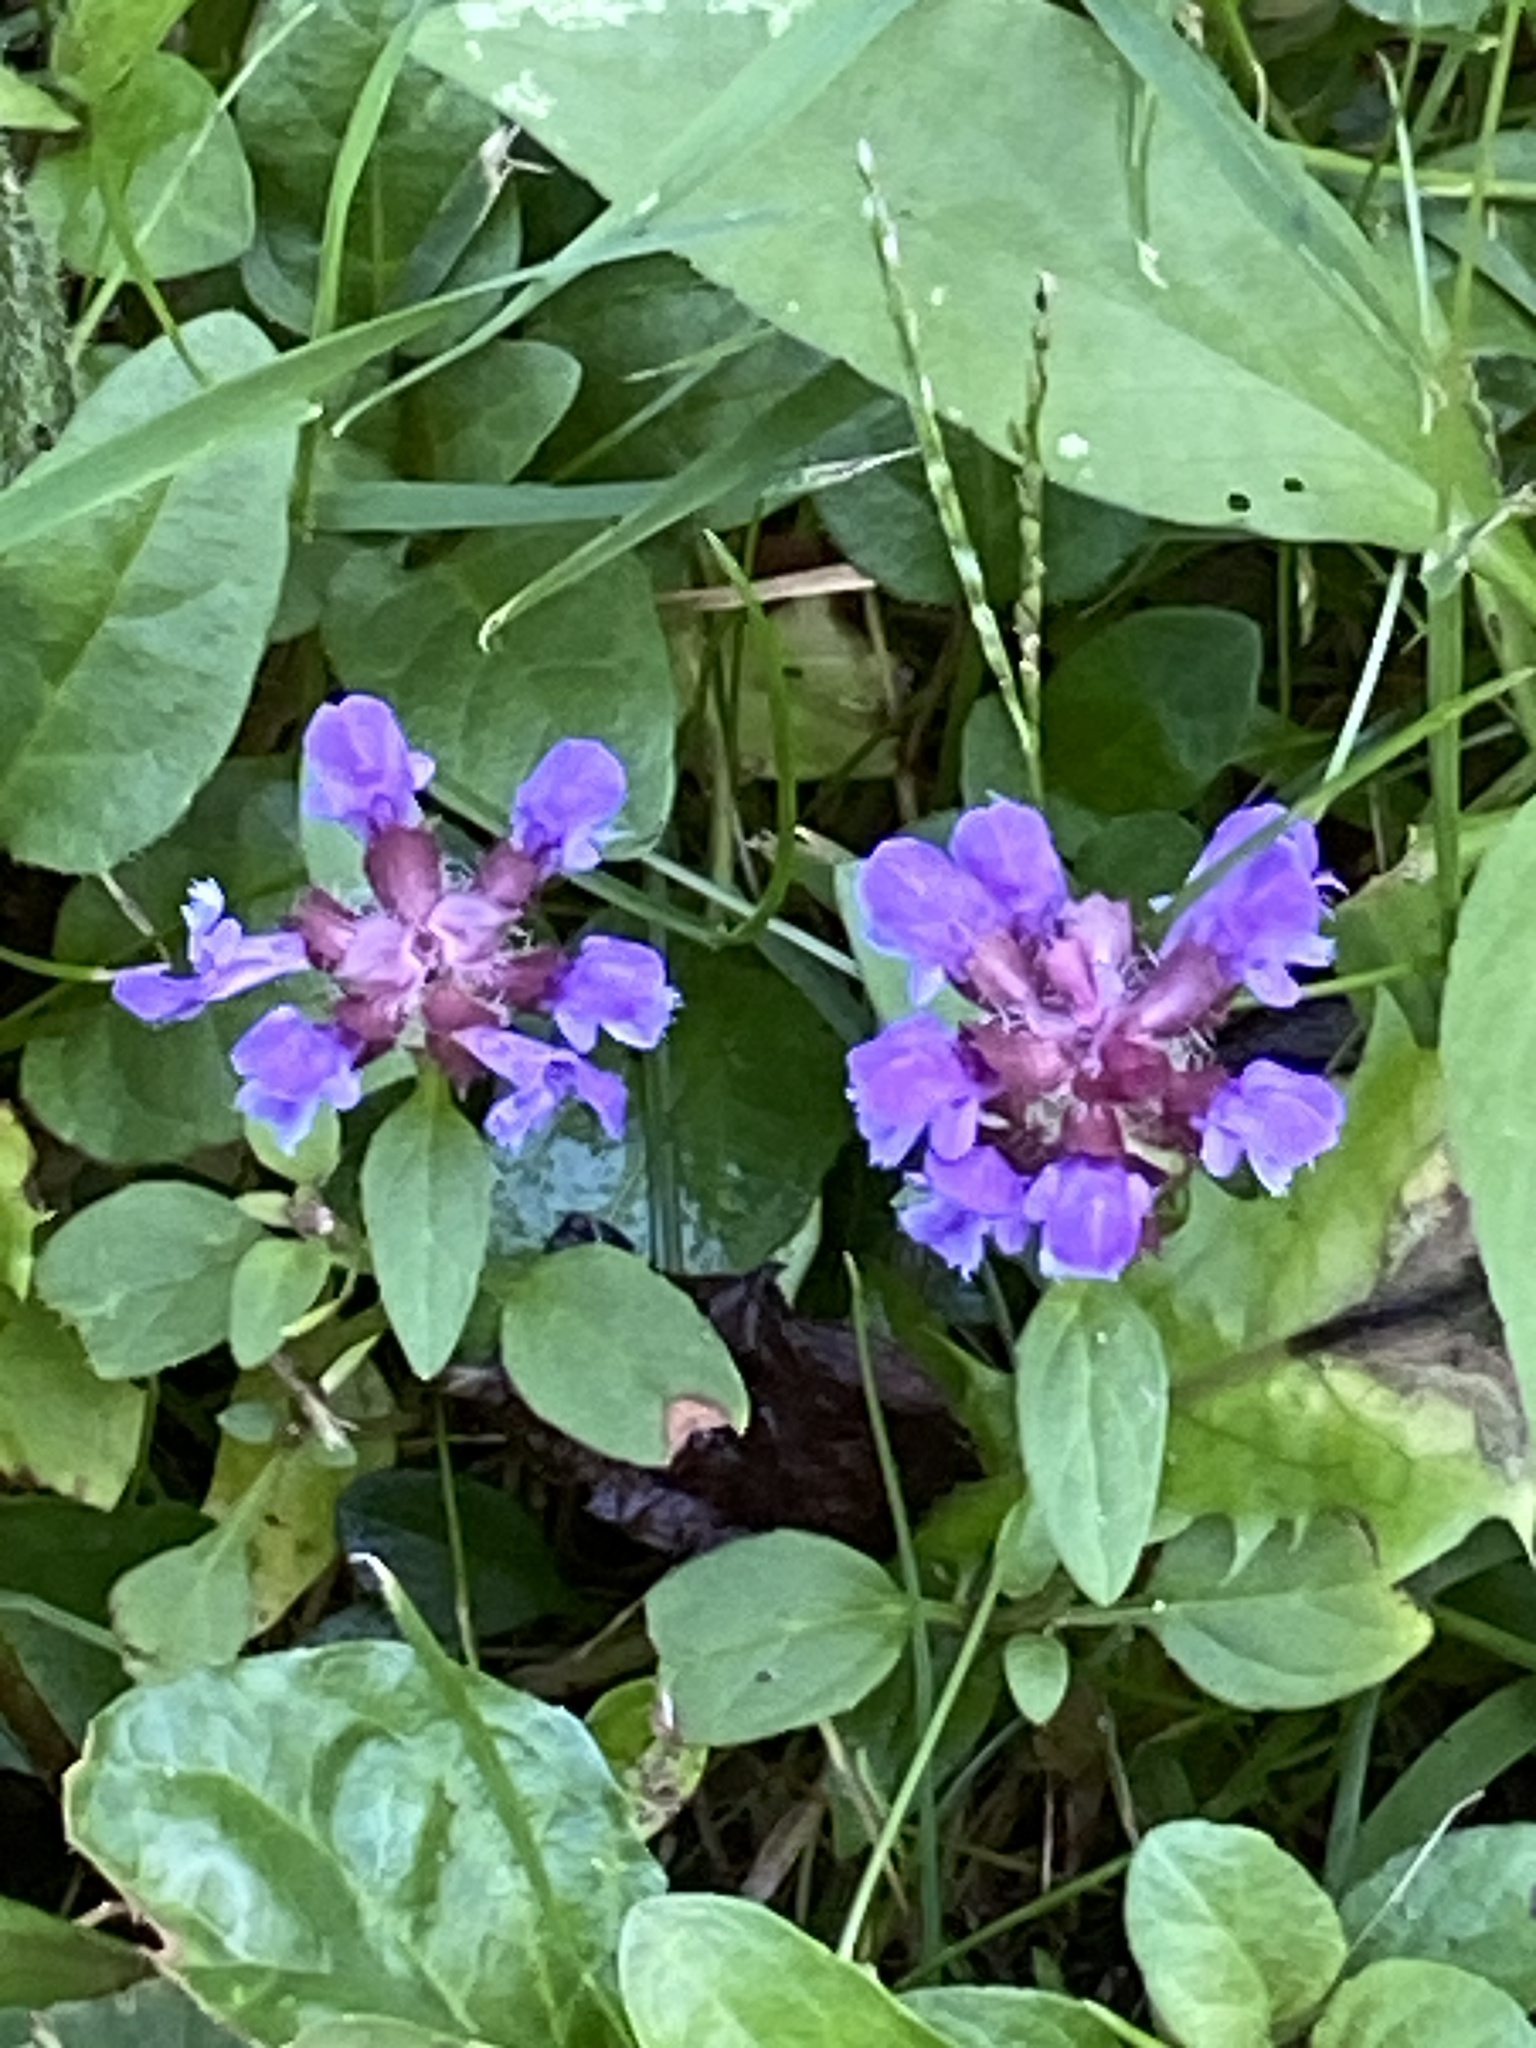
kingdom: Plantae
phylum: Tracheophyta
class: Magnoliopsida
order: Lamiales
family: Lamiaceae
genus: Prunella
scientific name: Prunella vulgaris
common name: Heal-all
